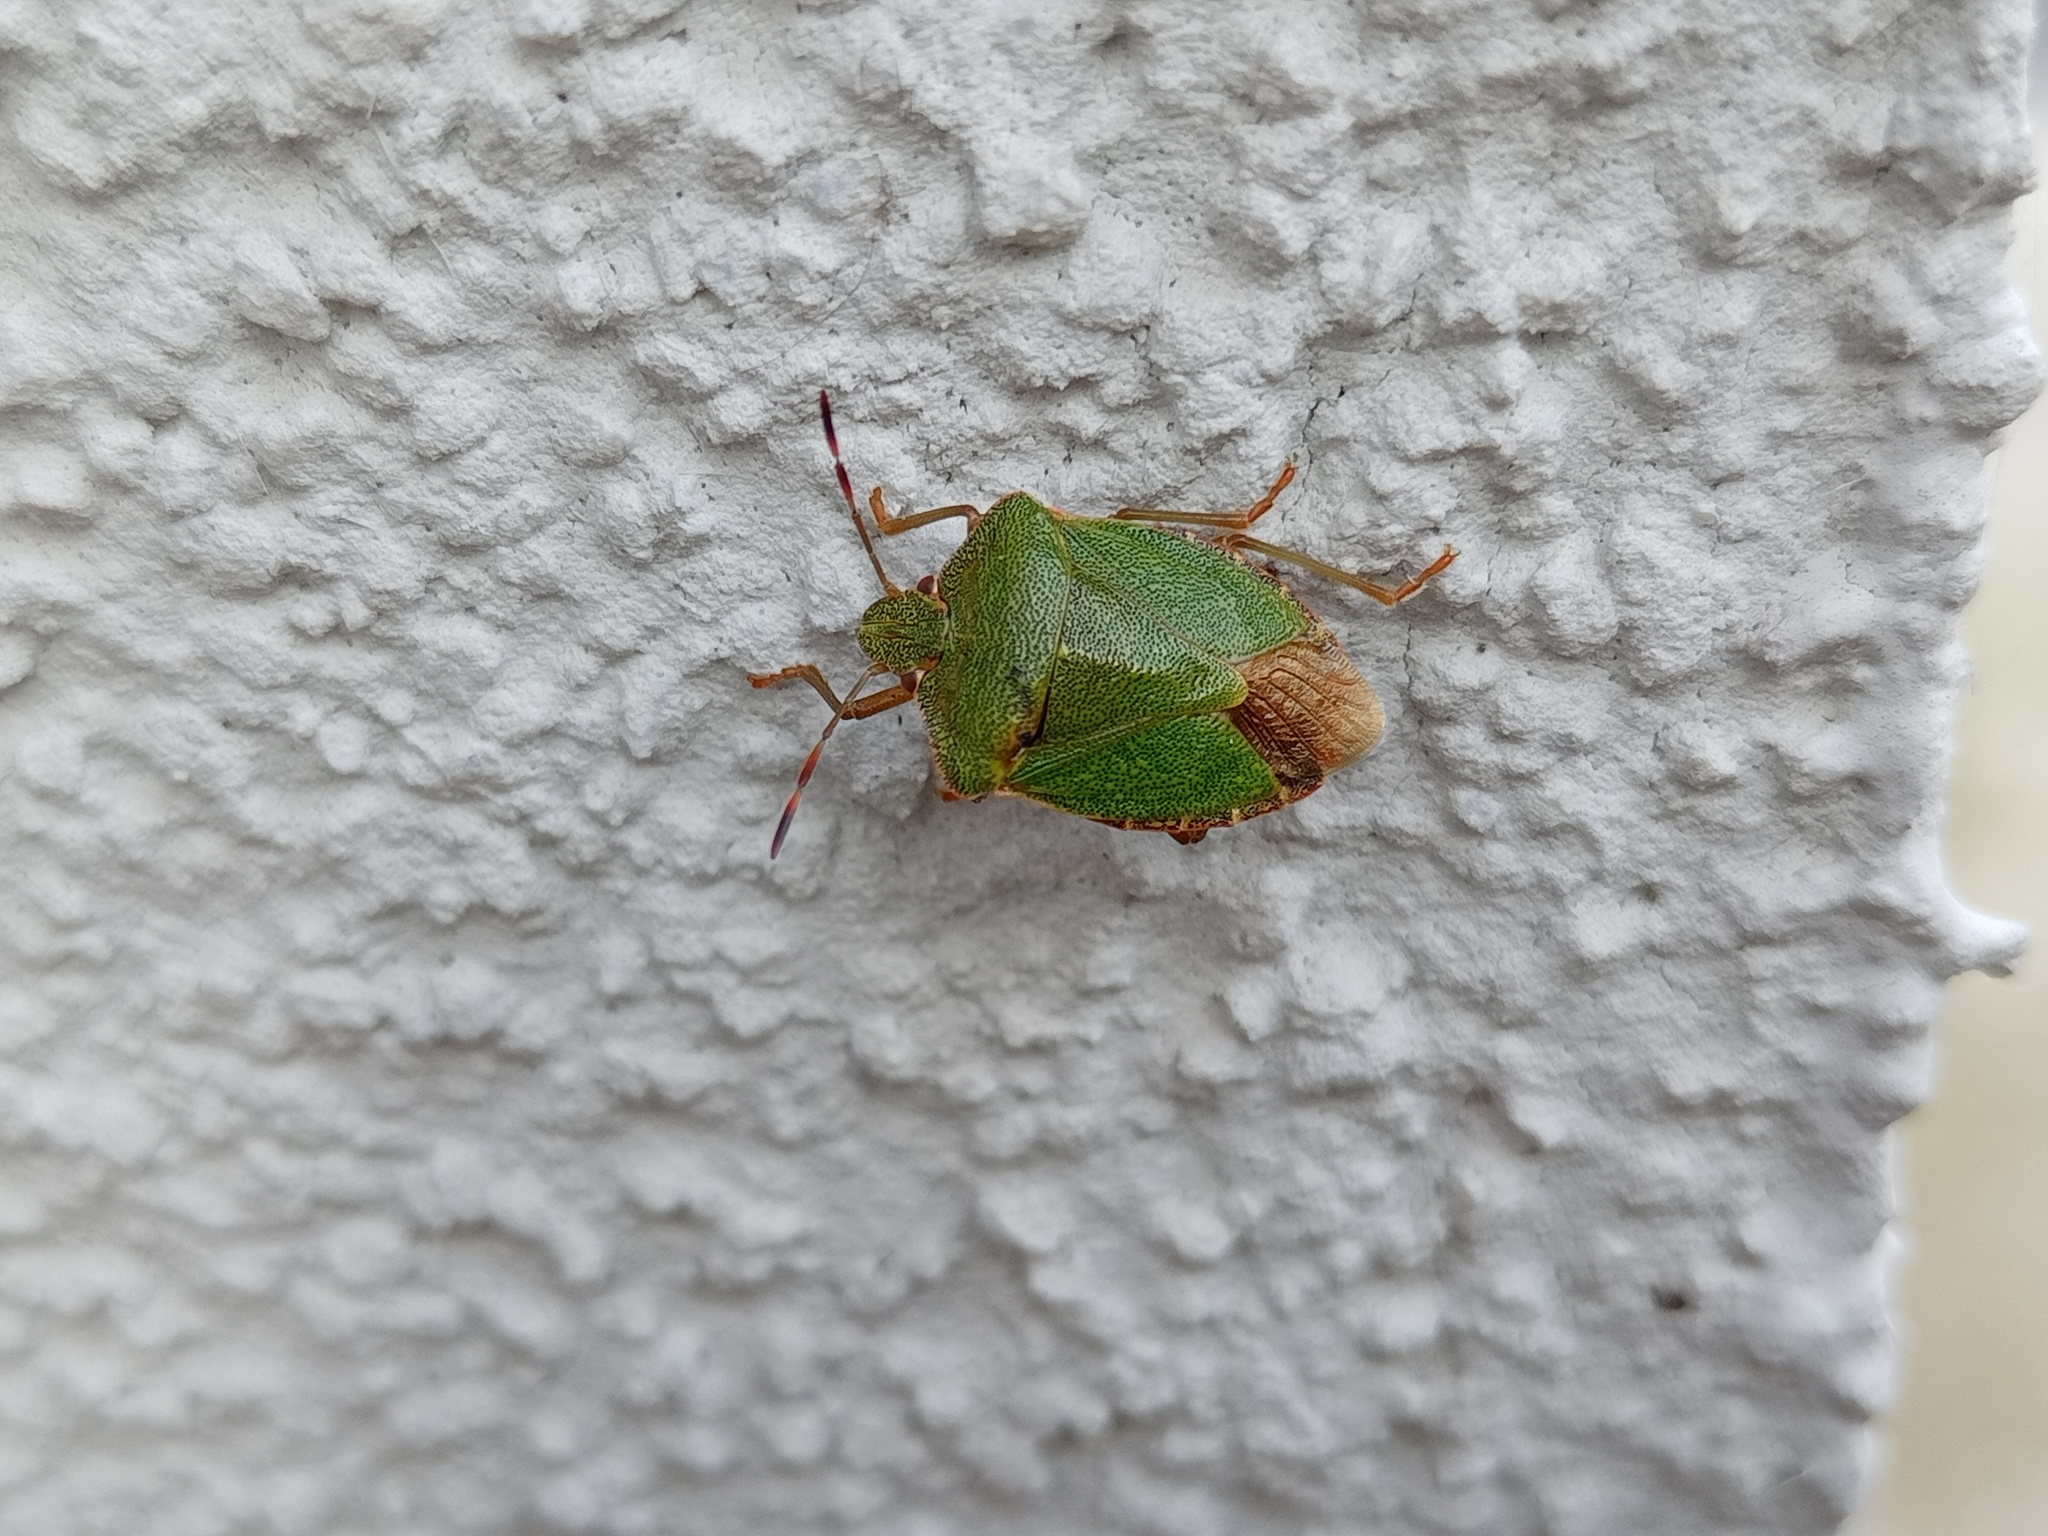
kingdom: Animalia
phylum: Arthropoda
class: Insecta
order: Hemiptera
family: Pentatomidae
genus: Palomena
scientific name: Palomena prasina
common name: Green shieldbug
